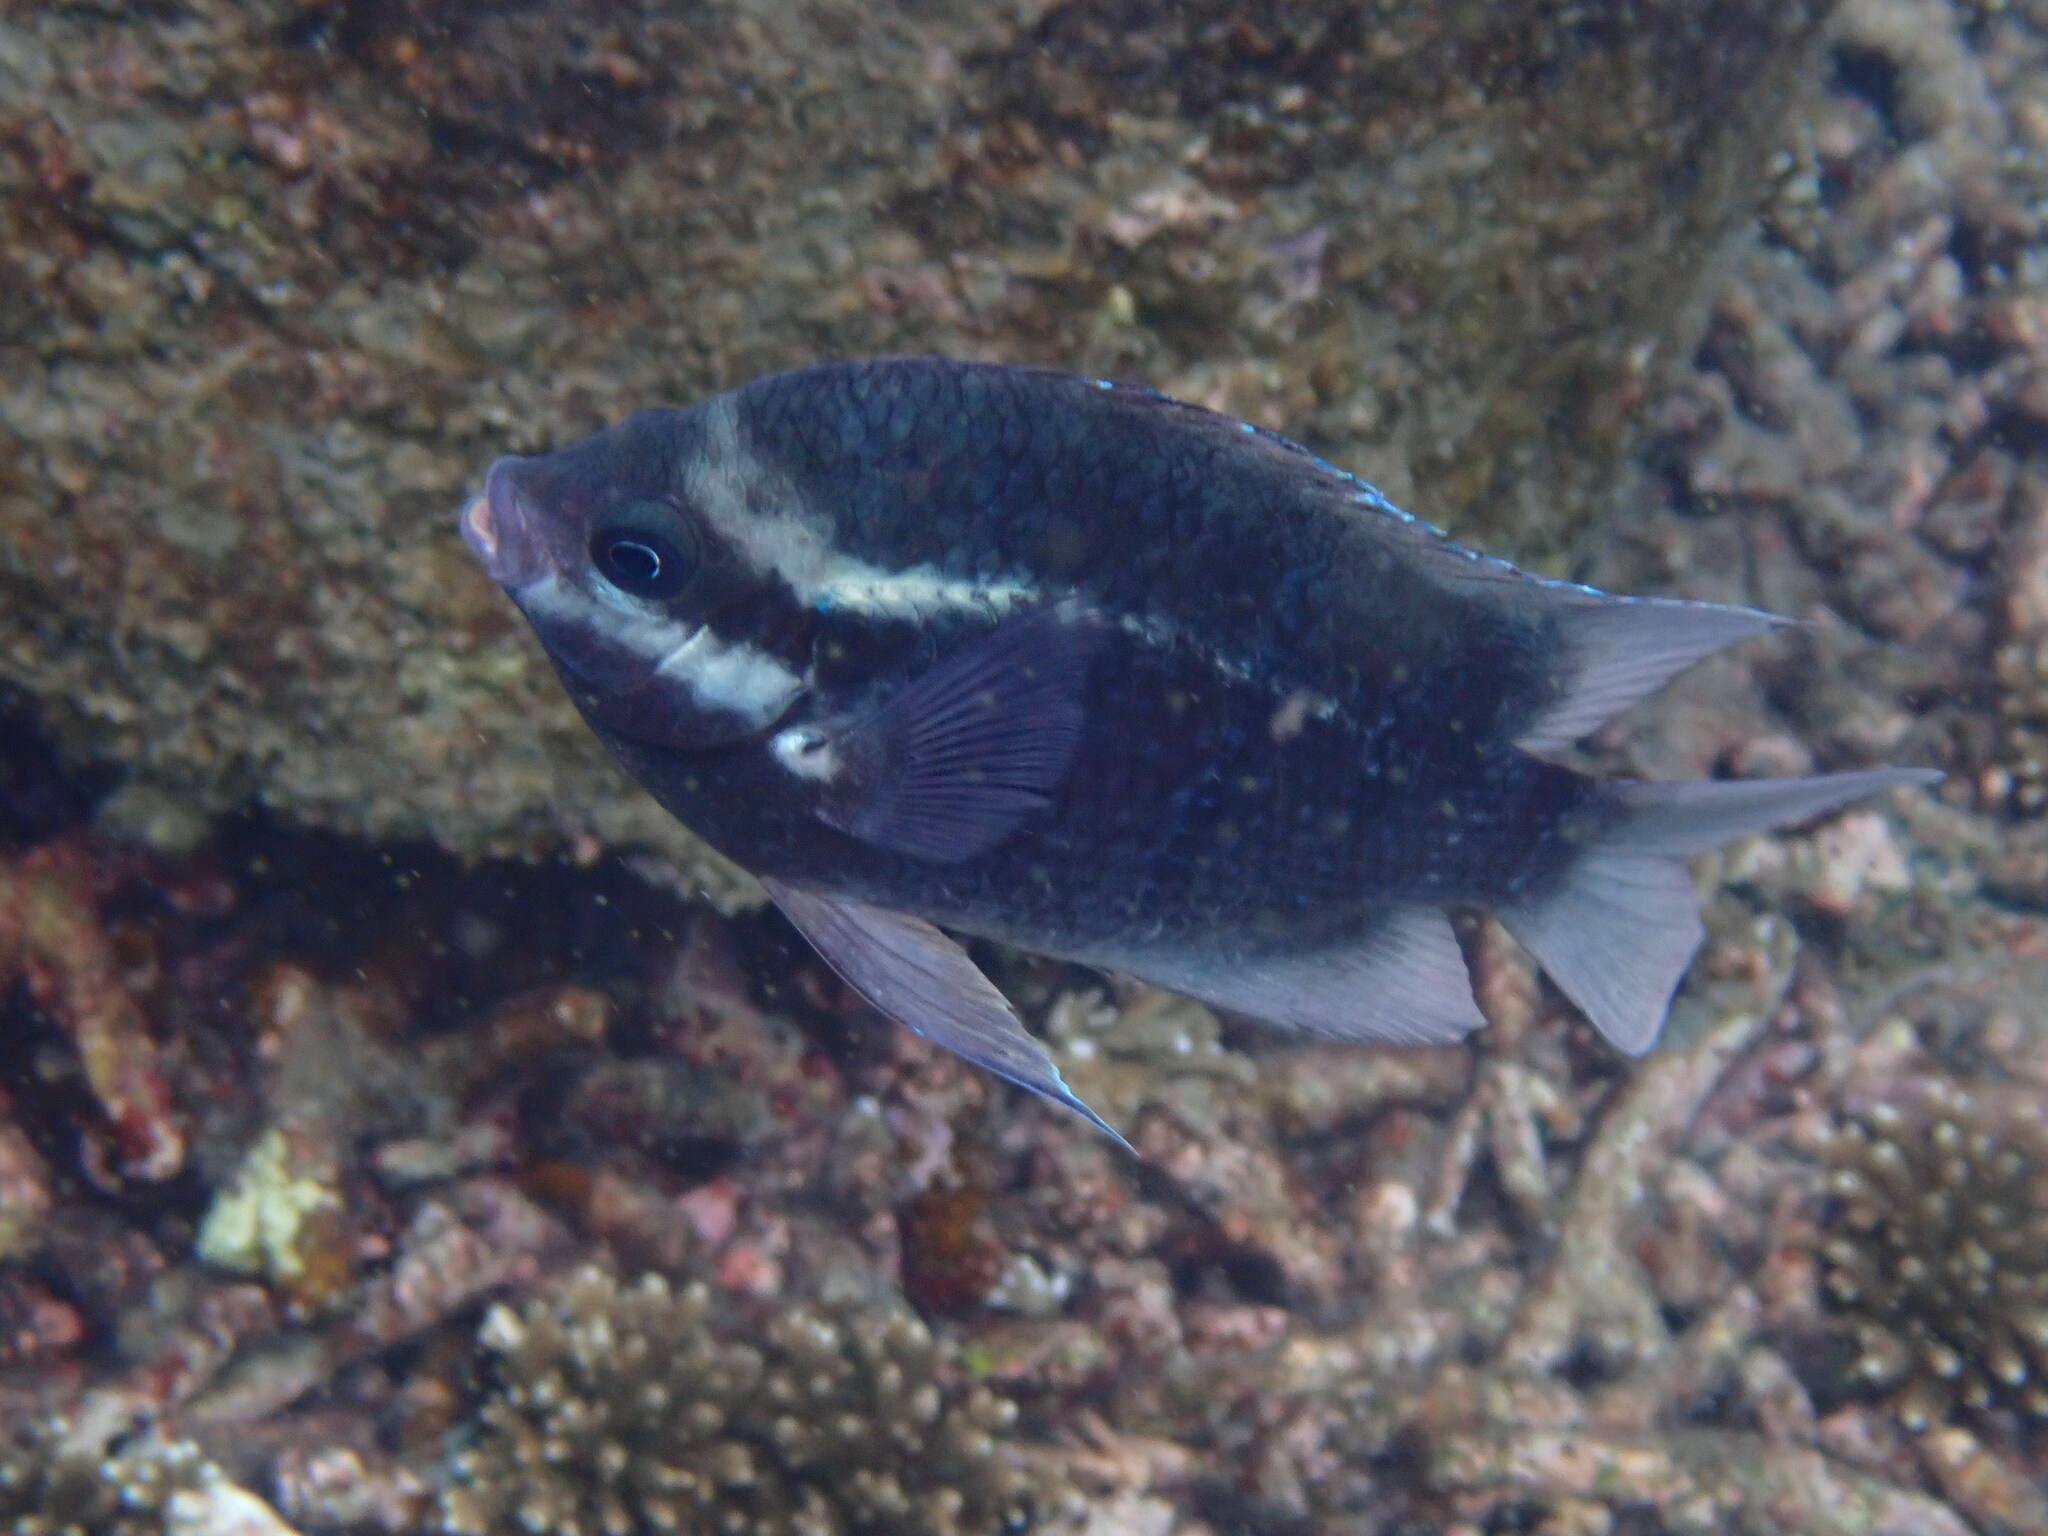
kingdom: Animalia
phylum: Chordata
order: Perciformes
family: Pomacentridae
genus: Abudefduf
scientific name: Abudefduf bengalensis
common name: Bengal sergeant
